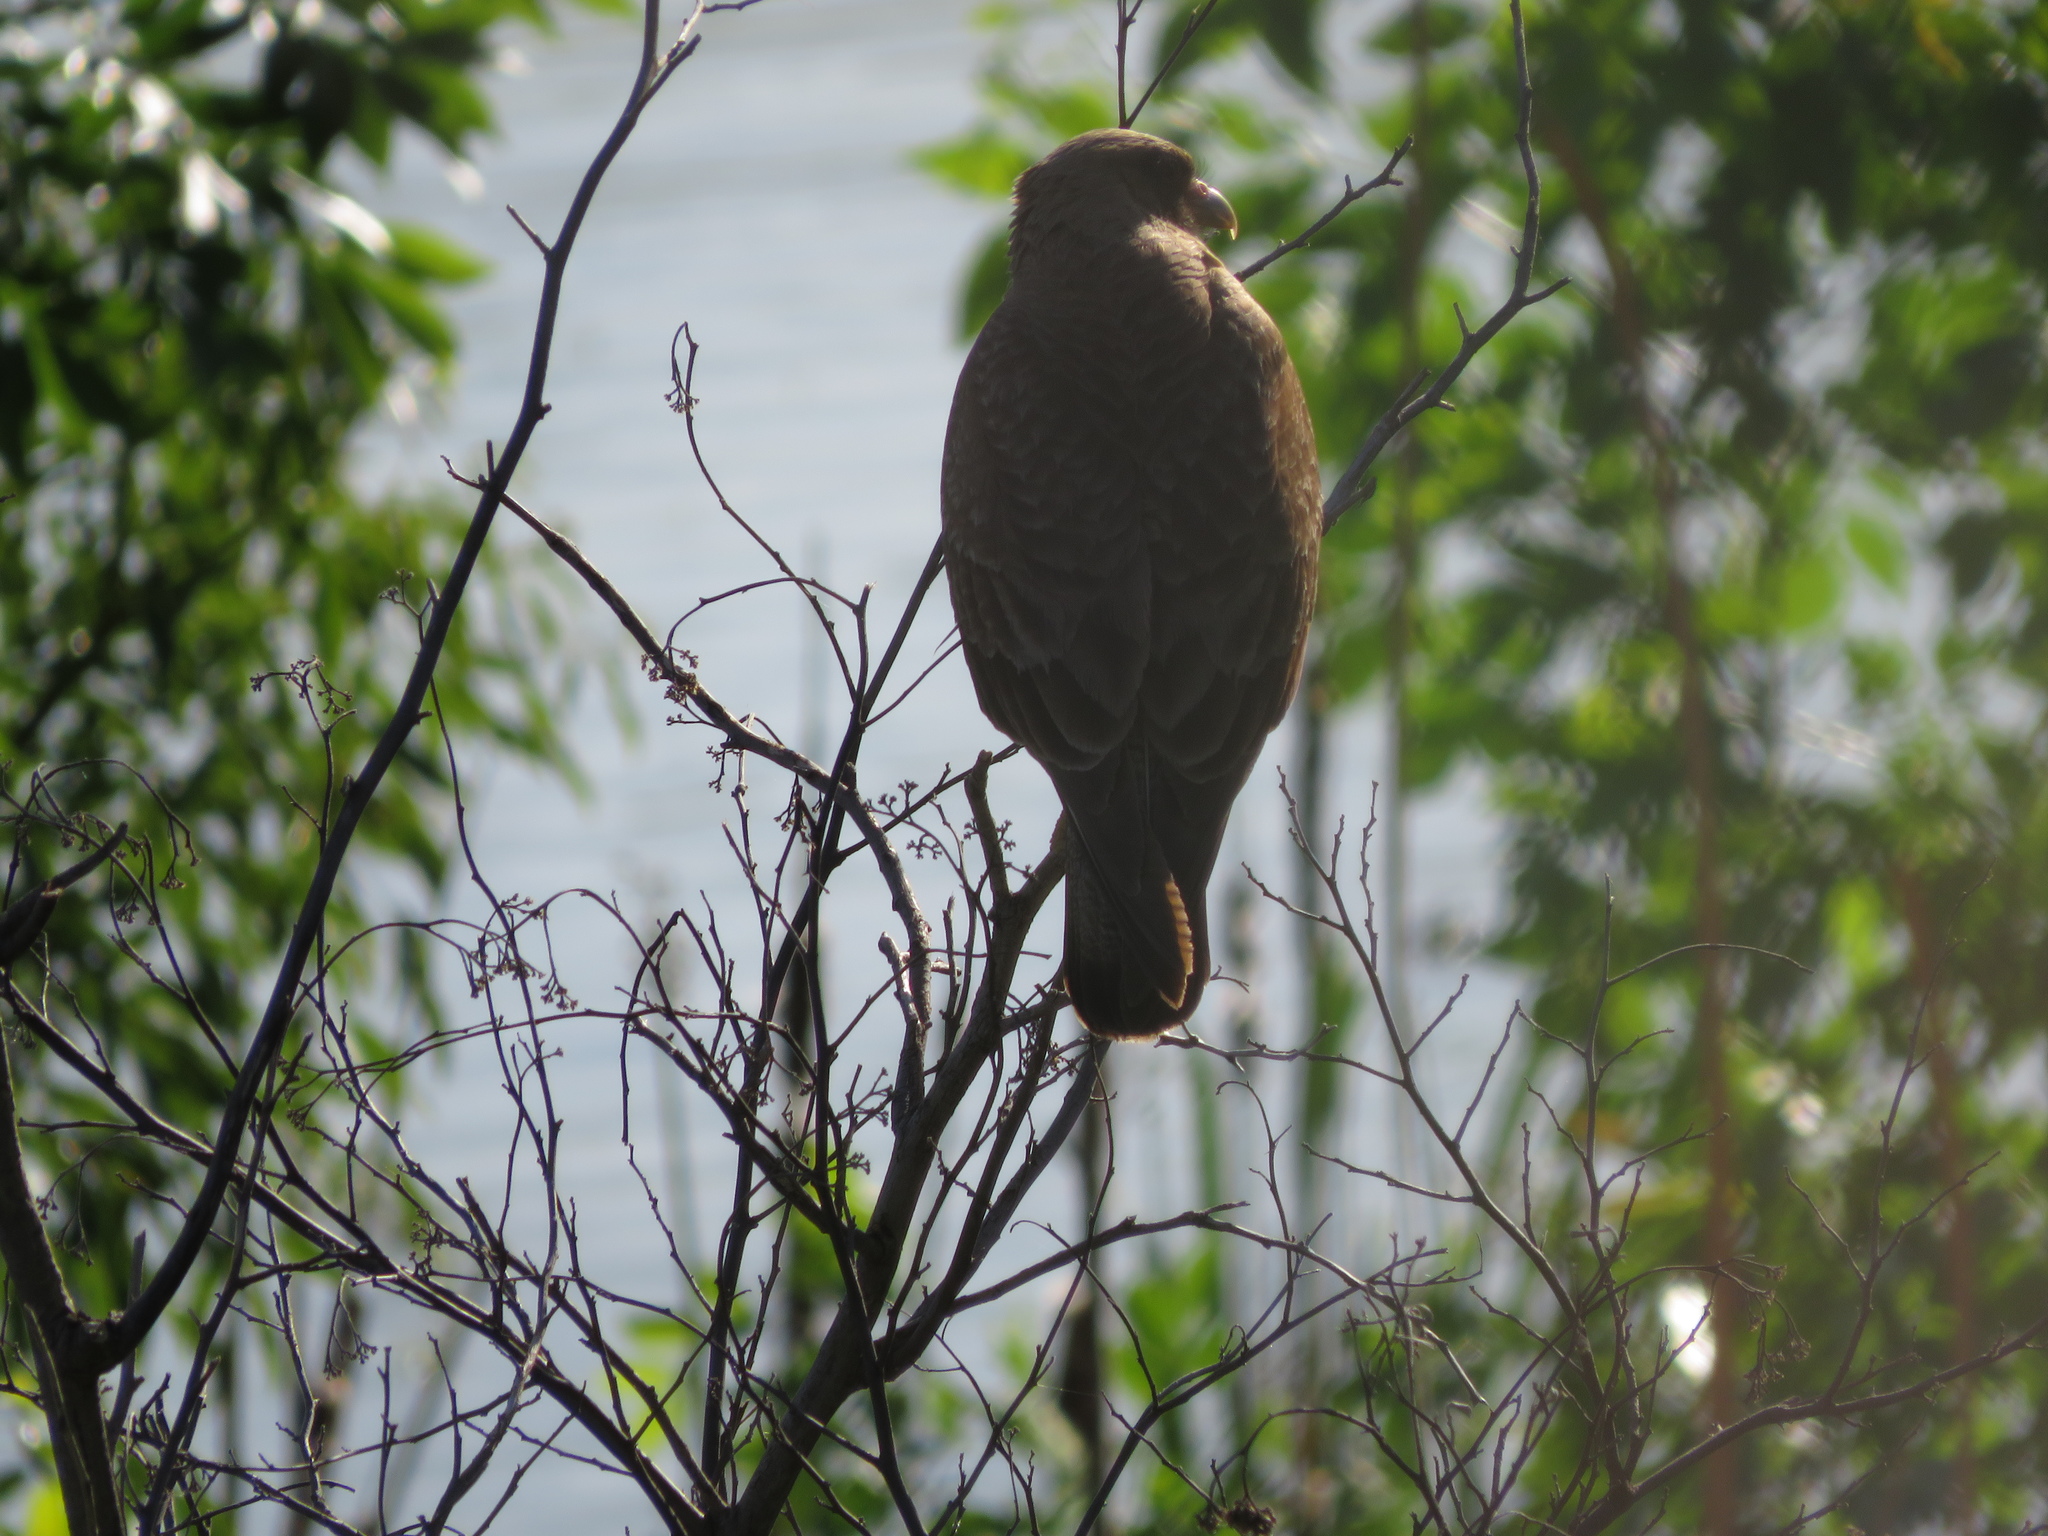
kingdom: Animalia
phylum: Chordata
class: Aves
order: Falconiformes
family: Falconidae
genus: Daptrius
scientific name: Daptrius
